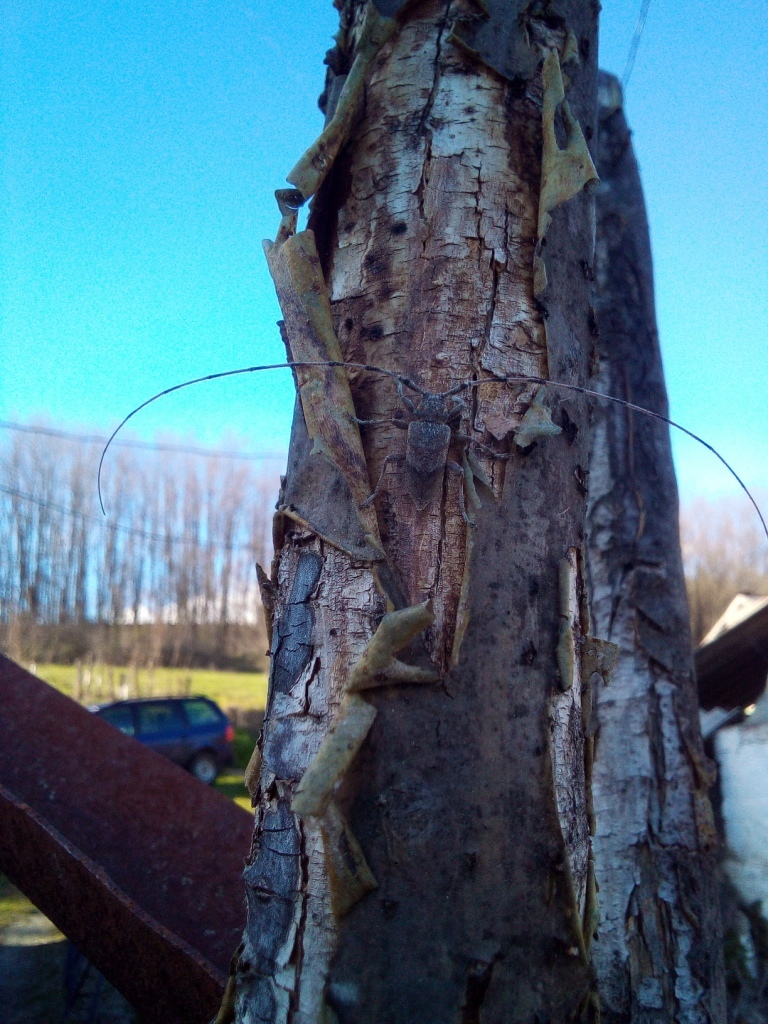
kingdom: Animalia
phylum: Arthropoda
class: Insecta
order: Coleoptera
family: Cerambycidae
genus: Acanthocinus
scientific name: Acanthocinus aedilis
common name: Timberman beetle
